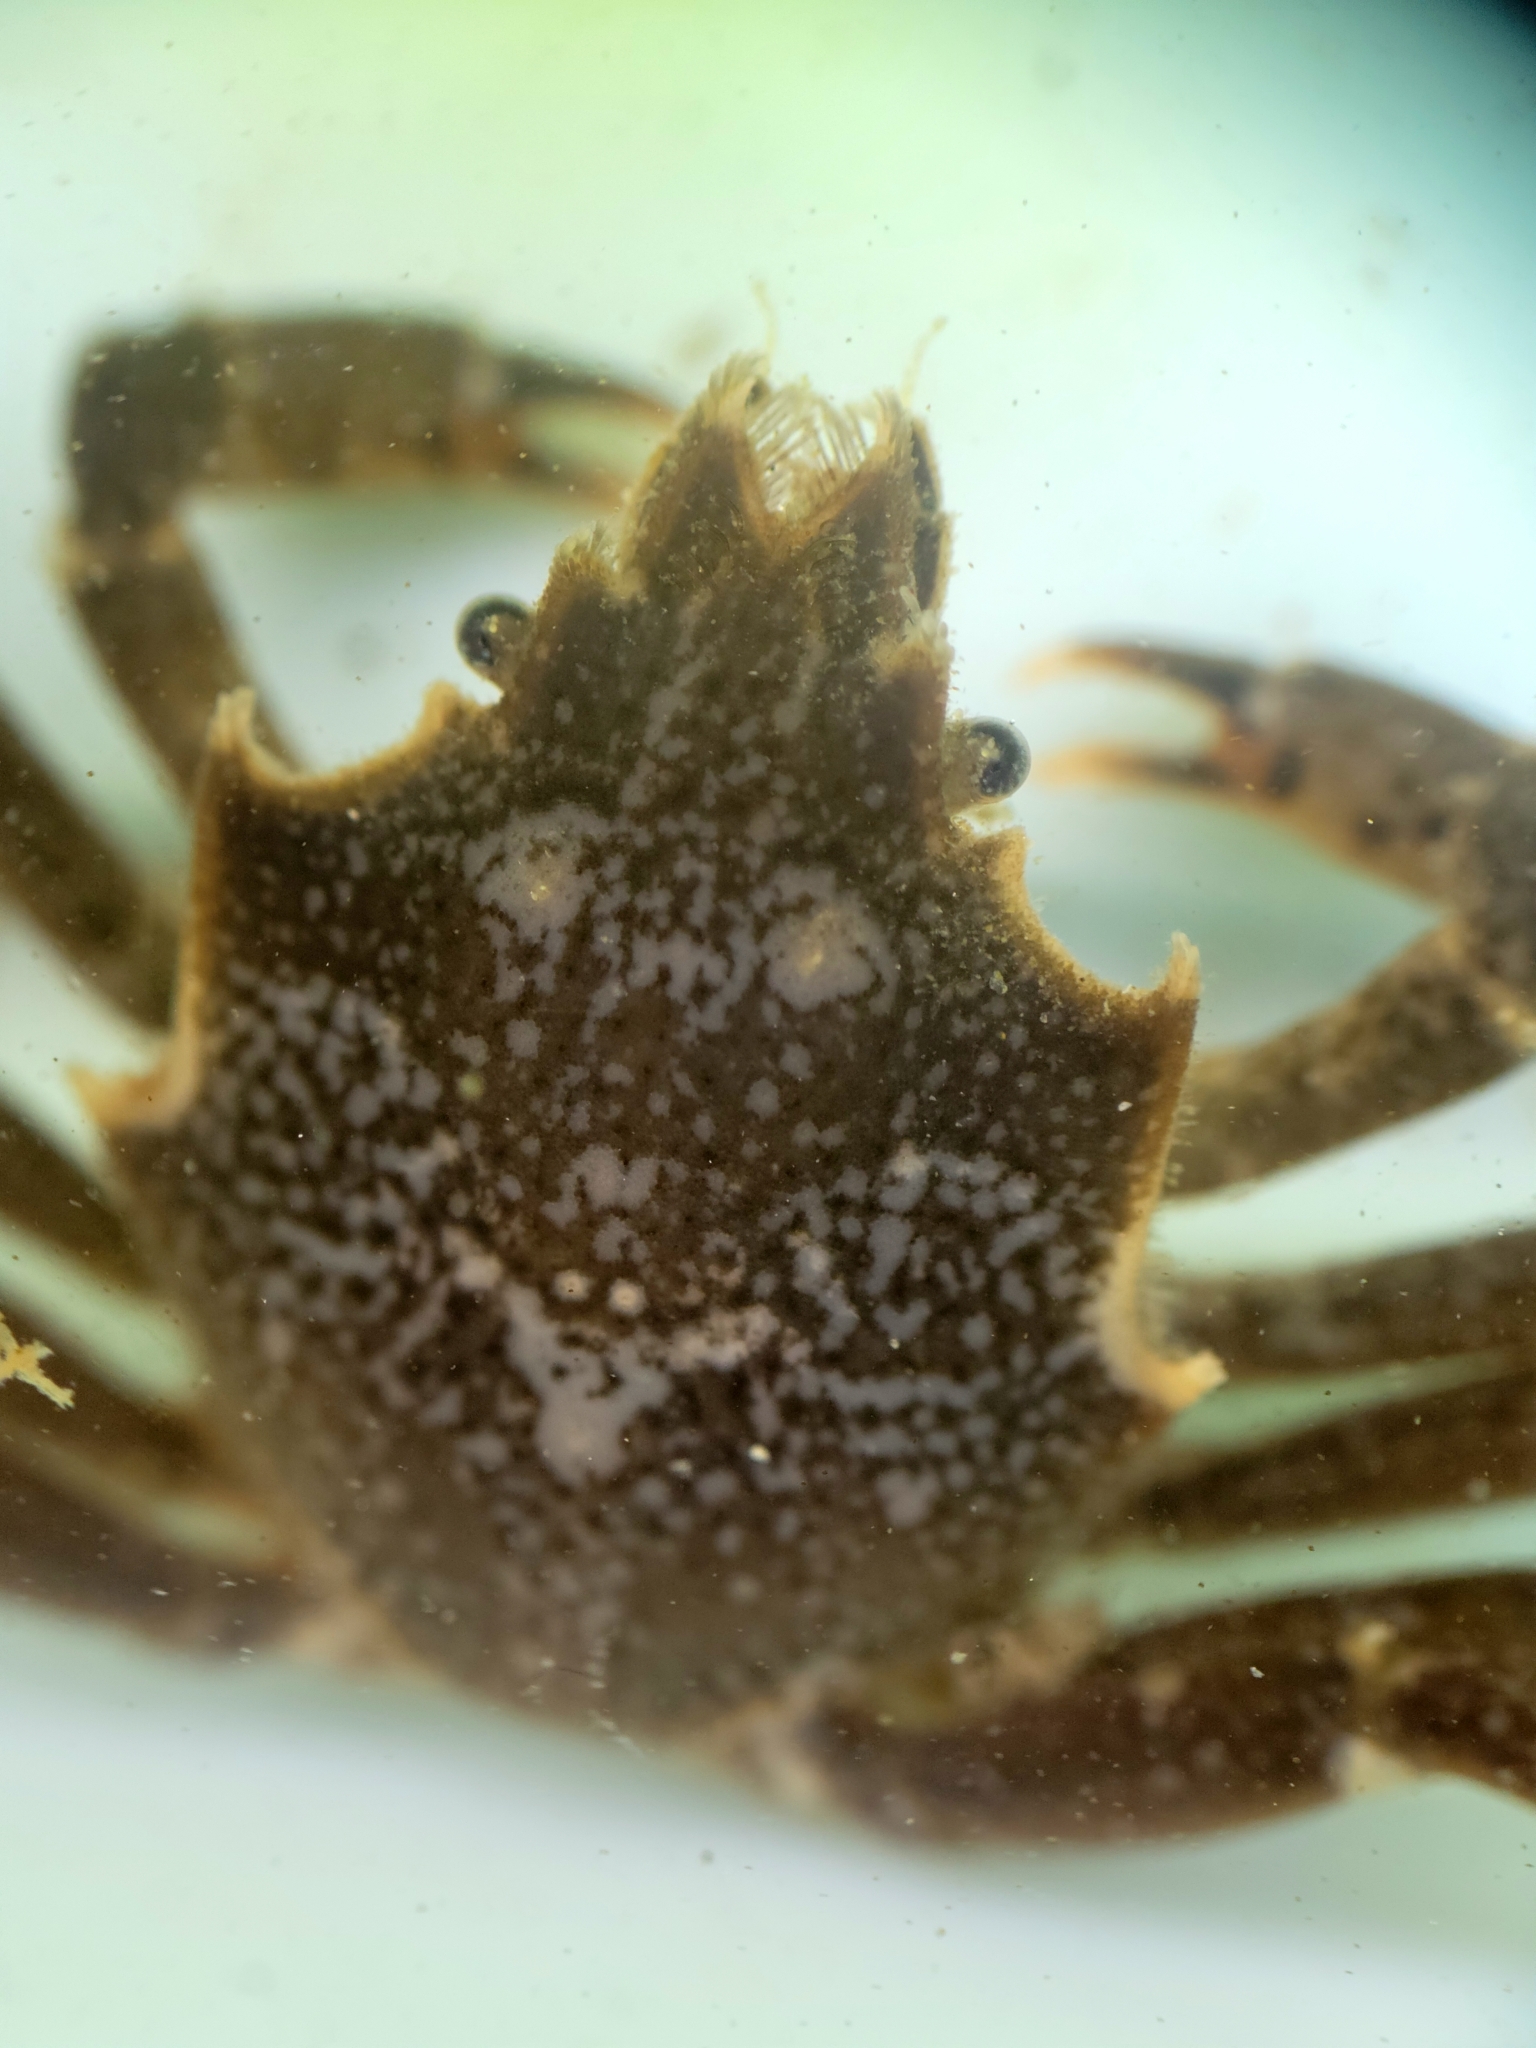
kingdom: Animalia
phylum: Arthropoda
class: Malacostraca
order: Decapoda
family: Epialtidae
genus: Pugettia
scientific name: Pugettia producta
